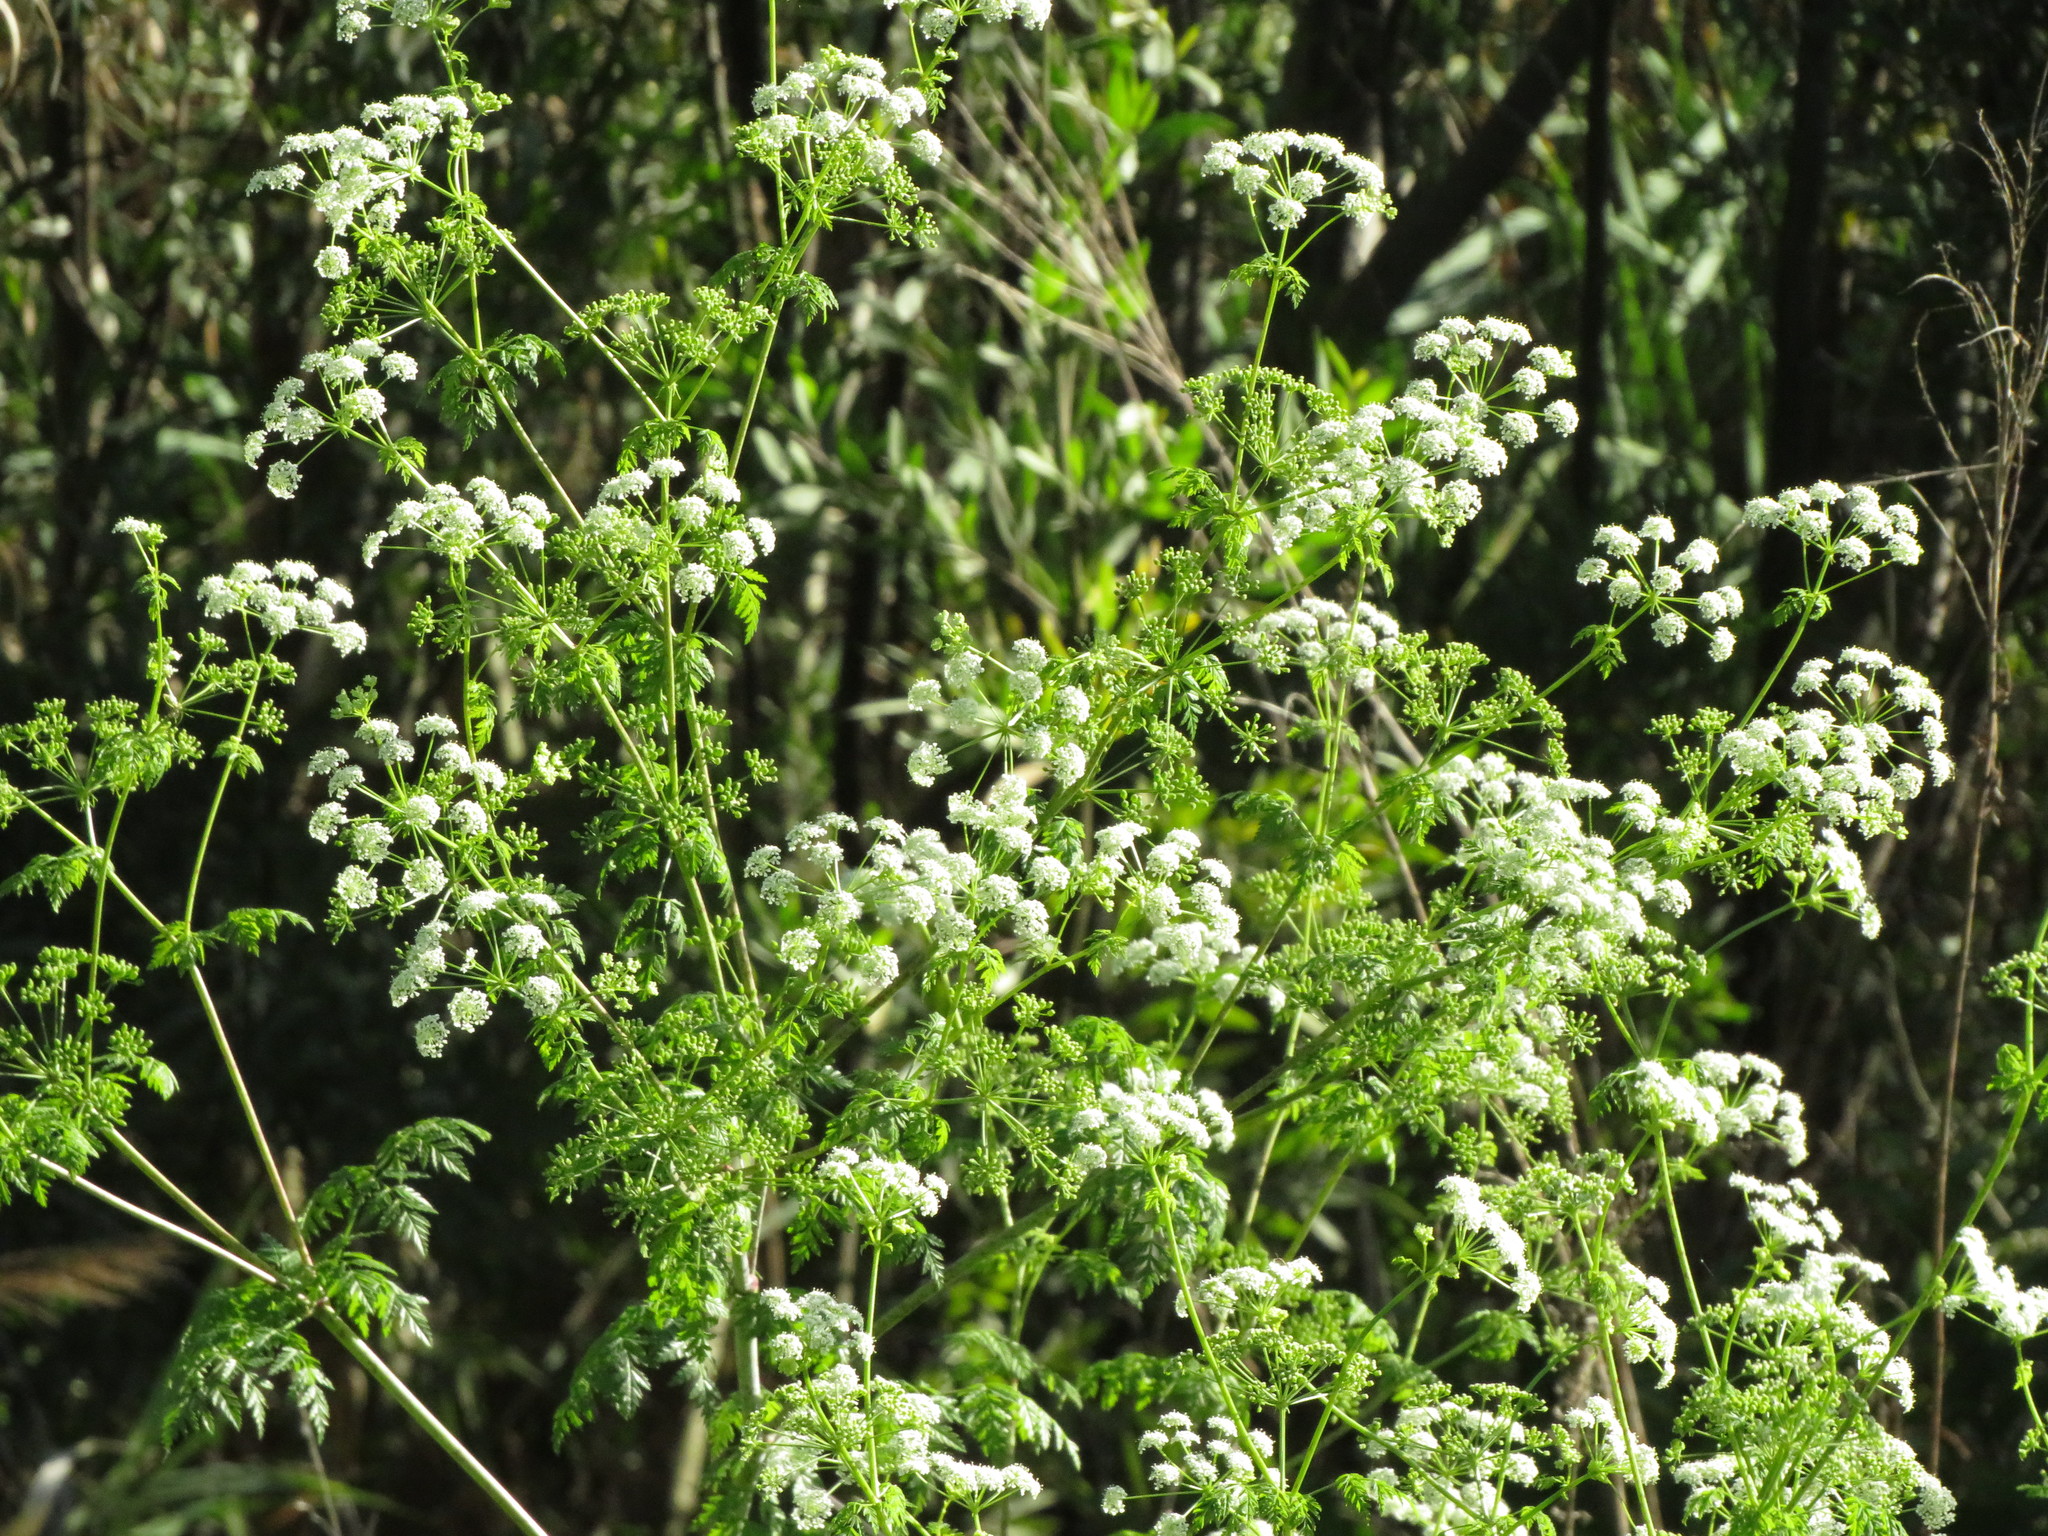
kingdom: Plantae
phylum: Tracheophyta
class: Magnoliopsida
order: Apiales
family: Apiaceae
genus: Conium
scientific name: Conium maculatum
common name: Hemlock
